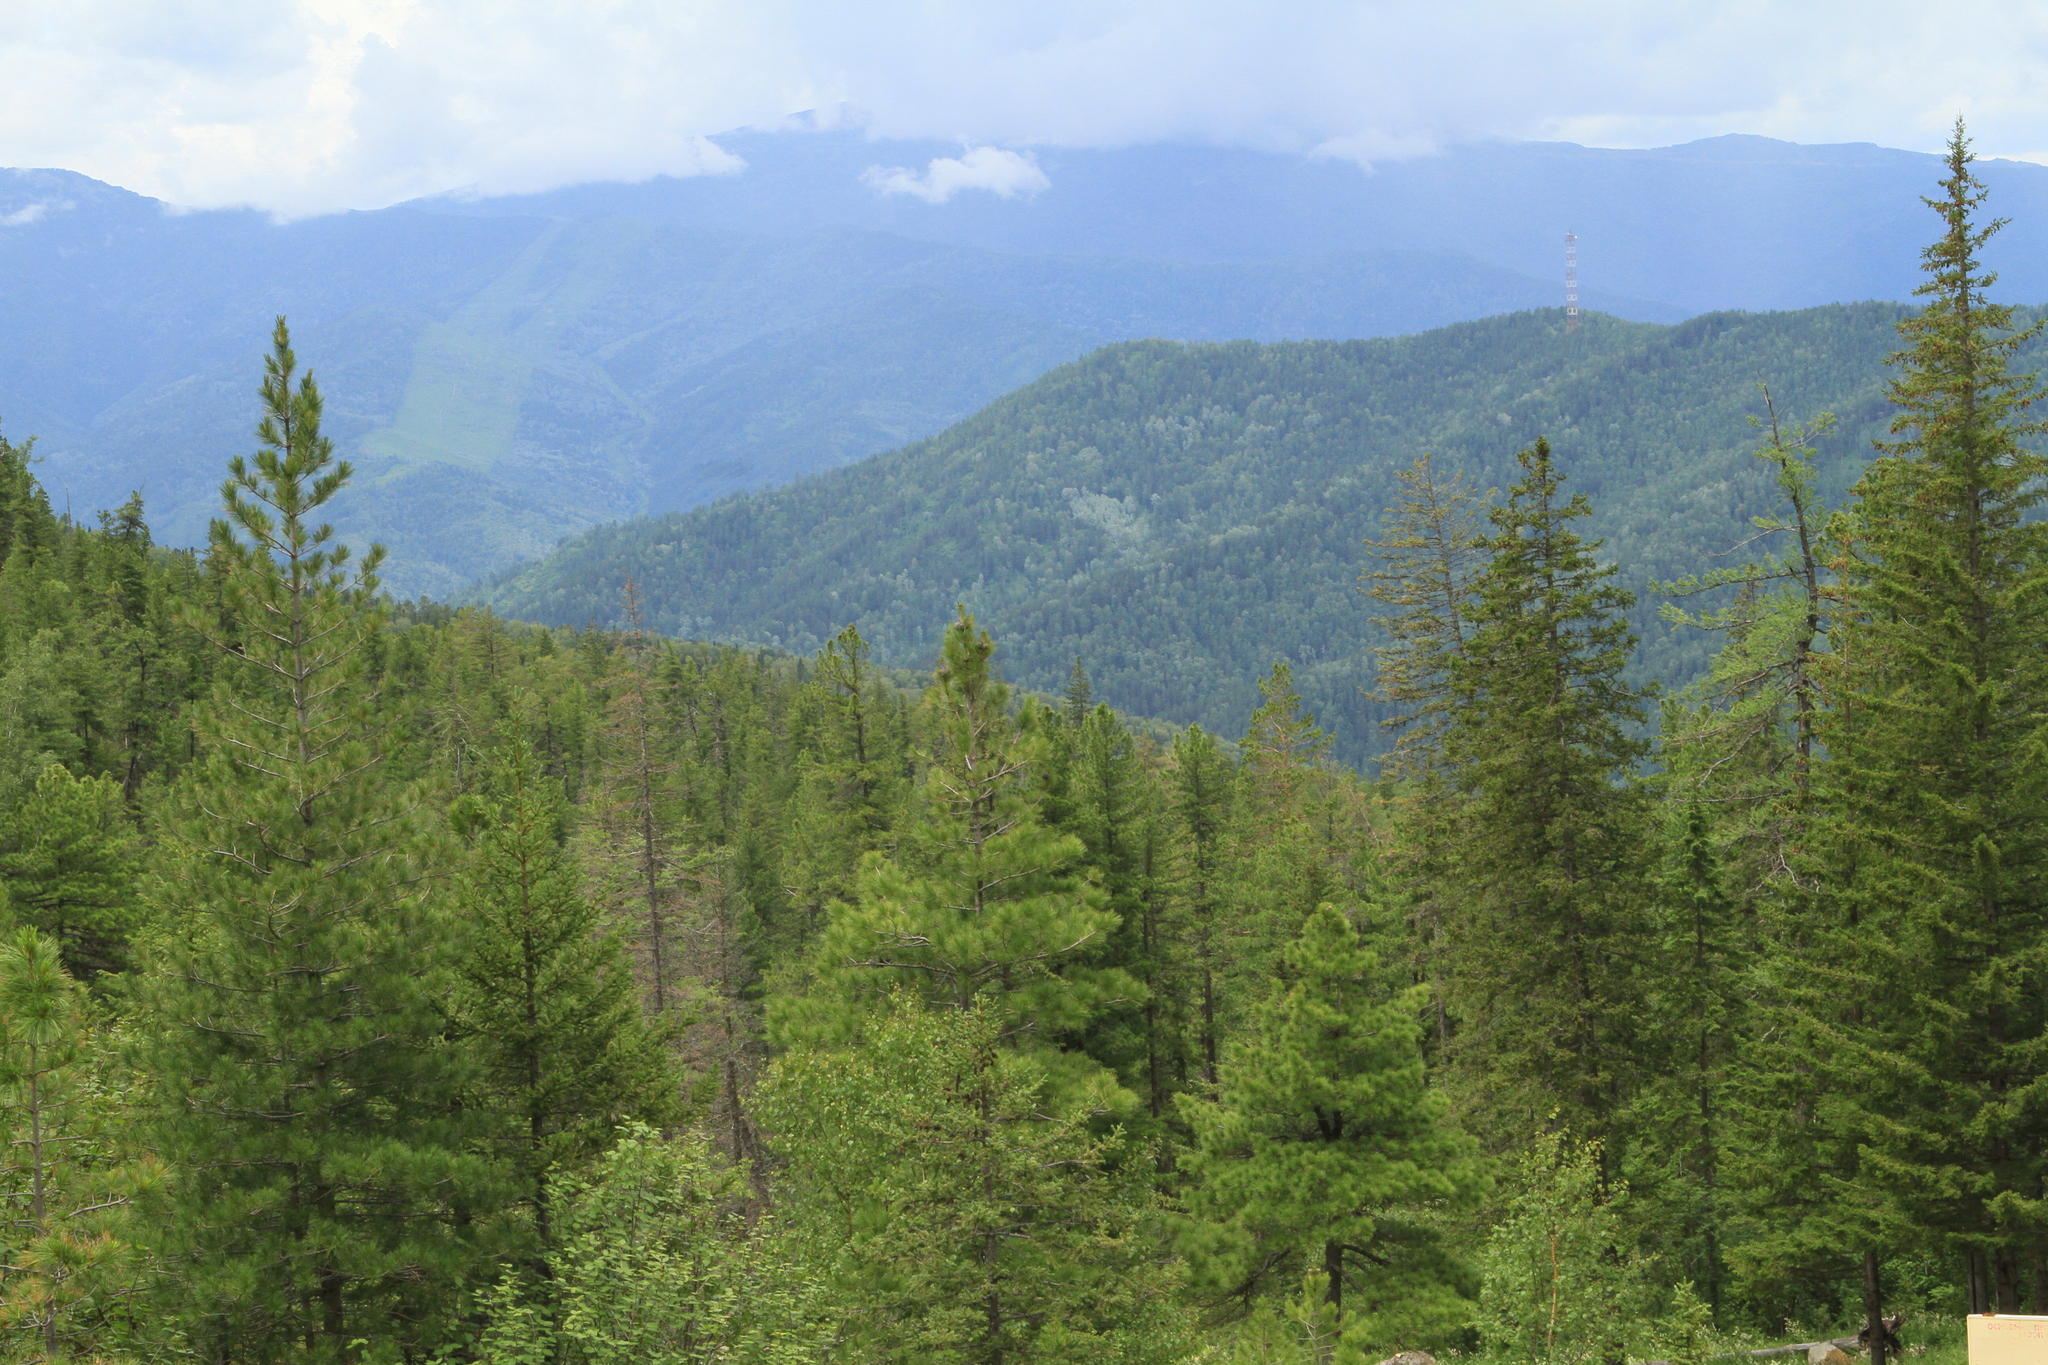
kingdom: Plantae
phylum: Tracheophyta
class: Pinopsida
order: Pinales
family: Pinaceae
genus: Pinus
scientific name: Pinus sibirica
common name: Siberian pine
